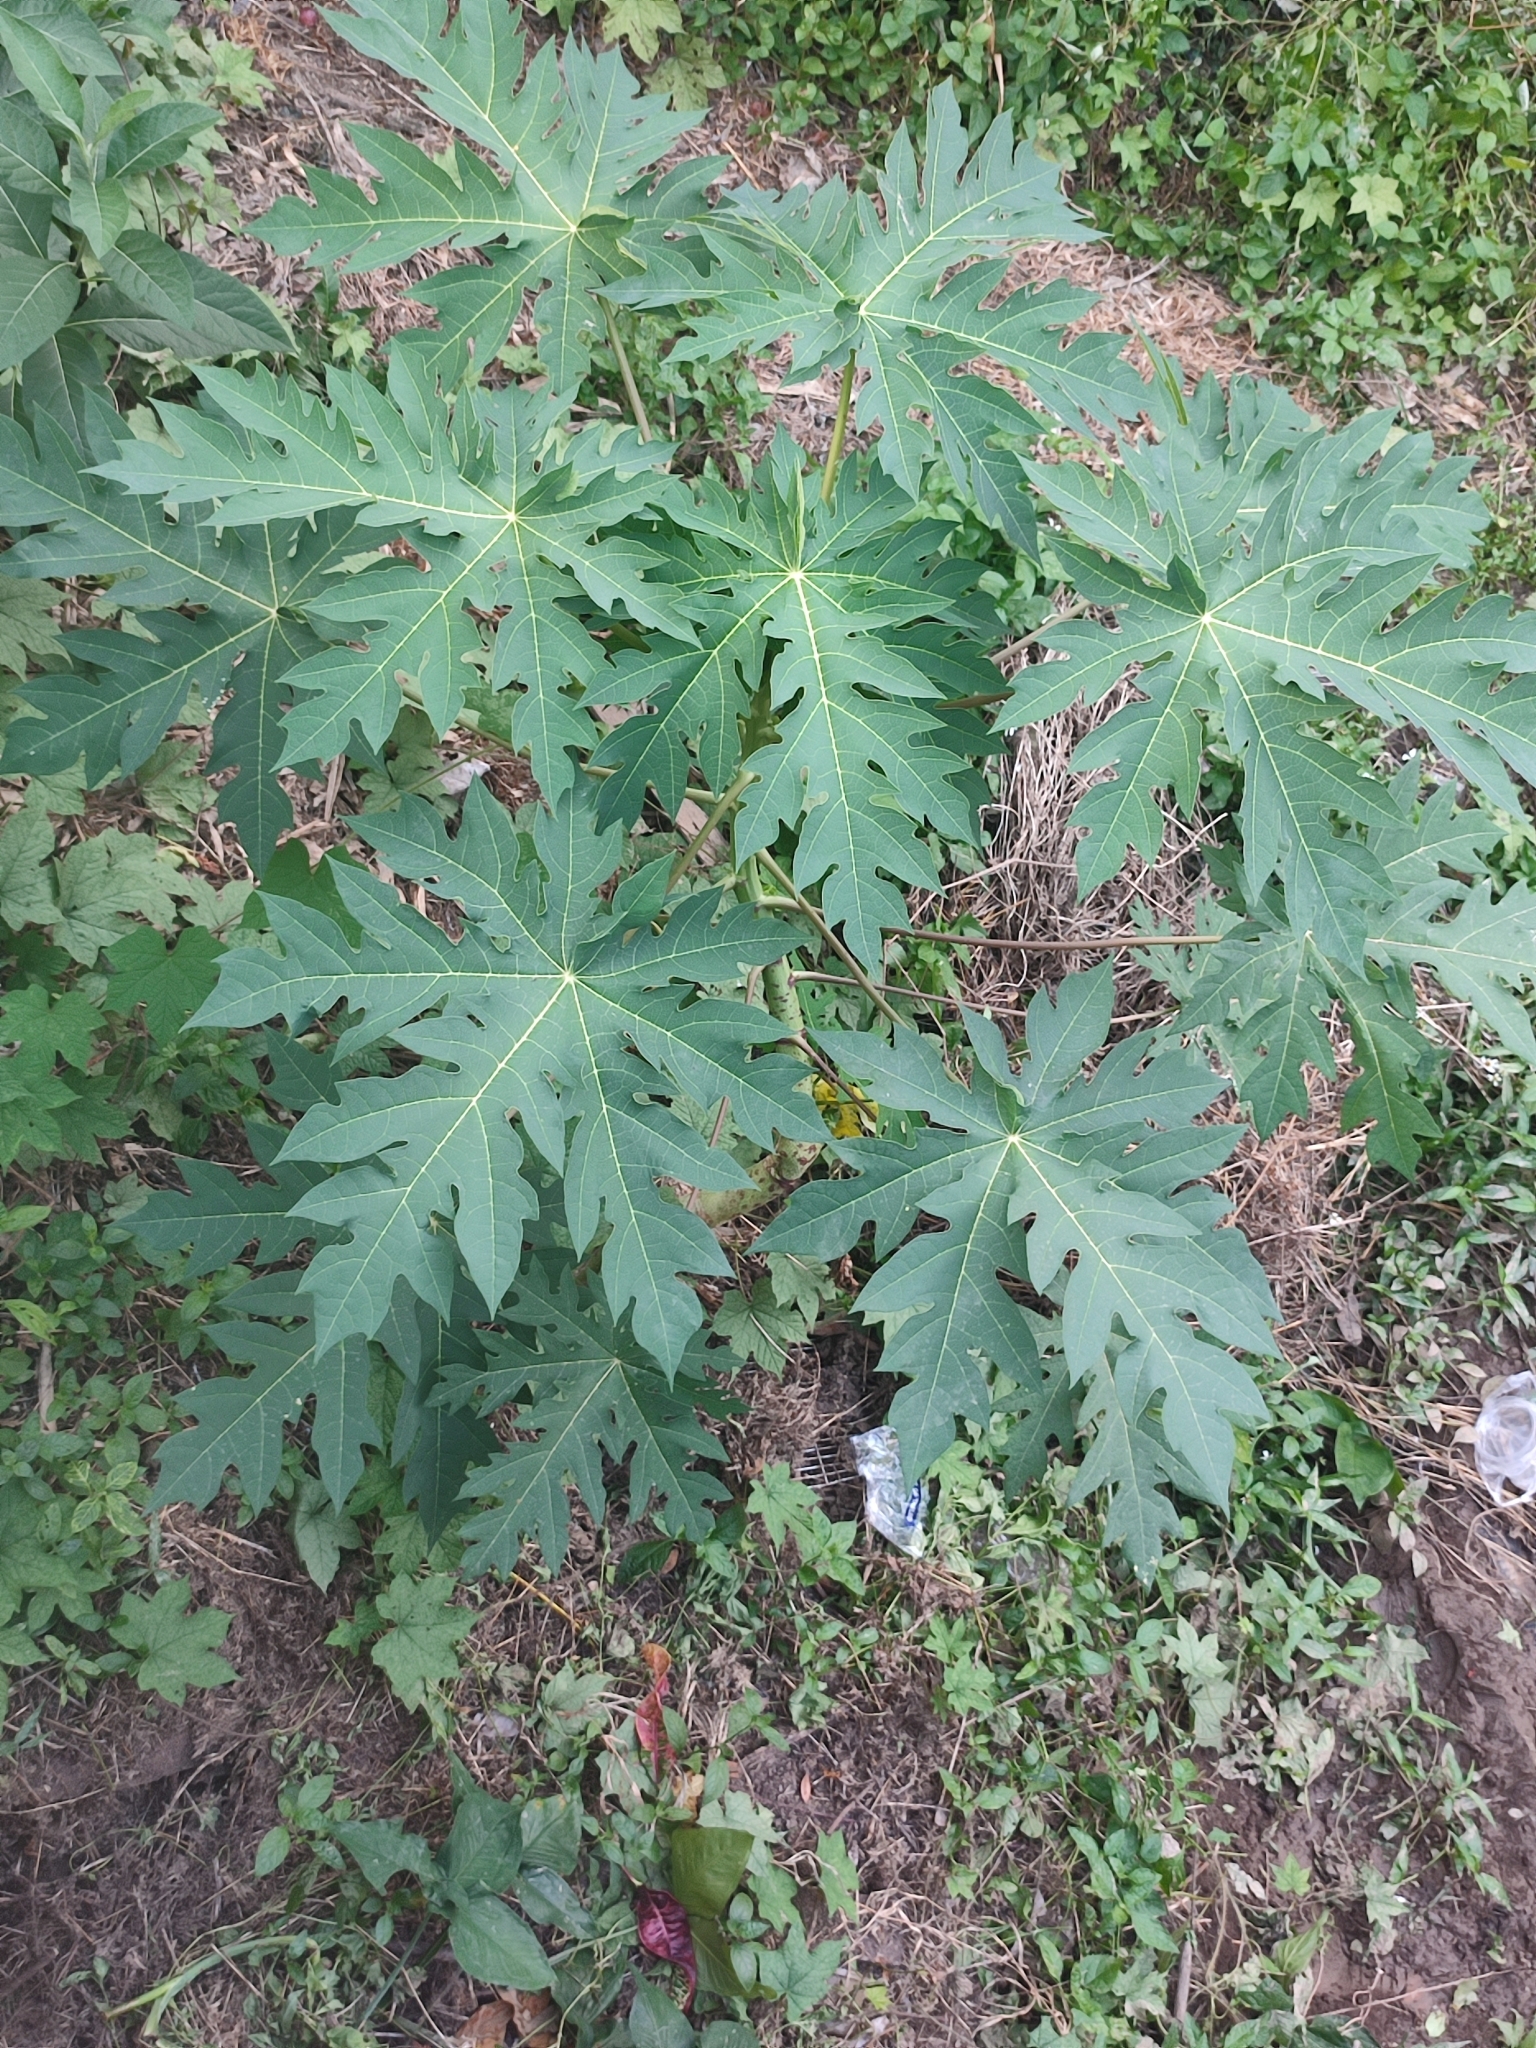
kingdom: Plantae
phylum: Tracheophyta
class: Magnoliopsida
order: Brassicales
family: Caricaceae
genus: Carica
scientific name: Carica papaya
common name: Papaya
